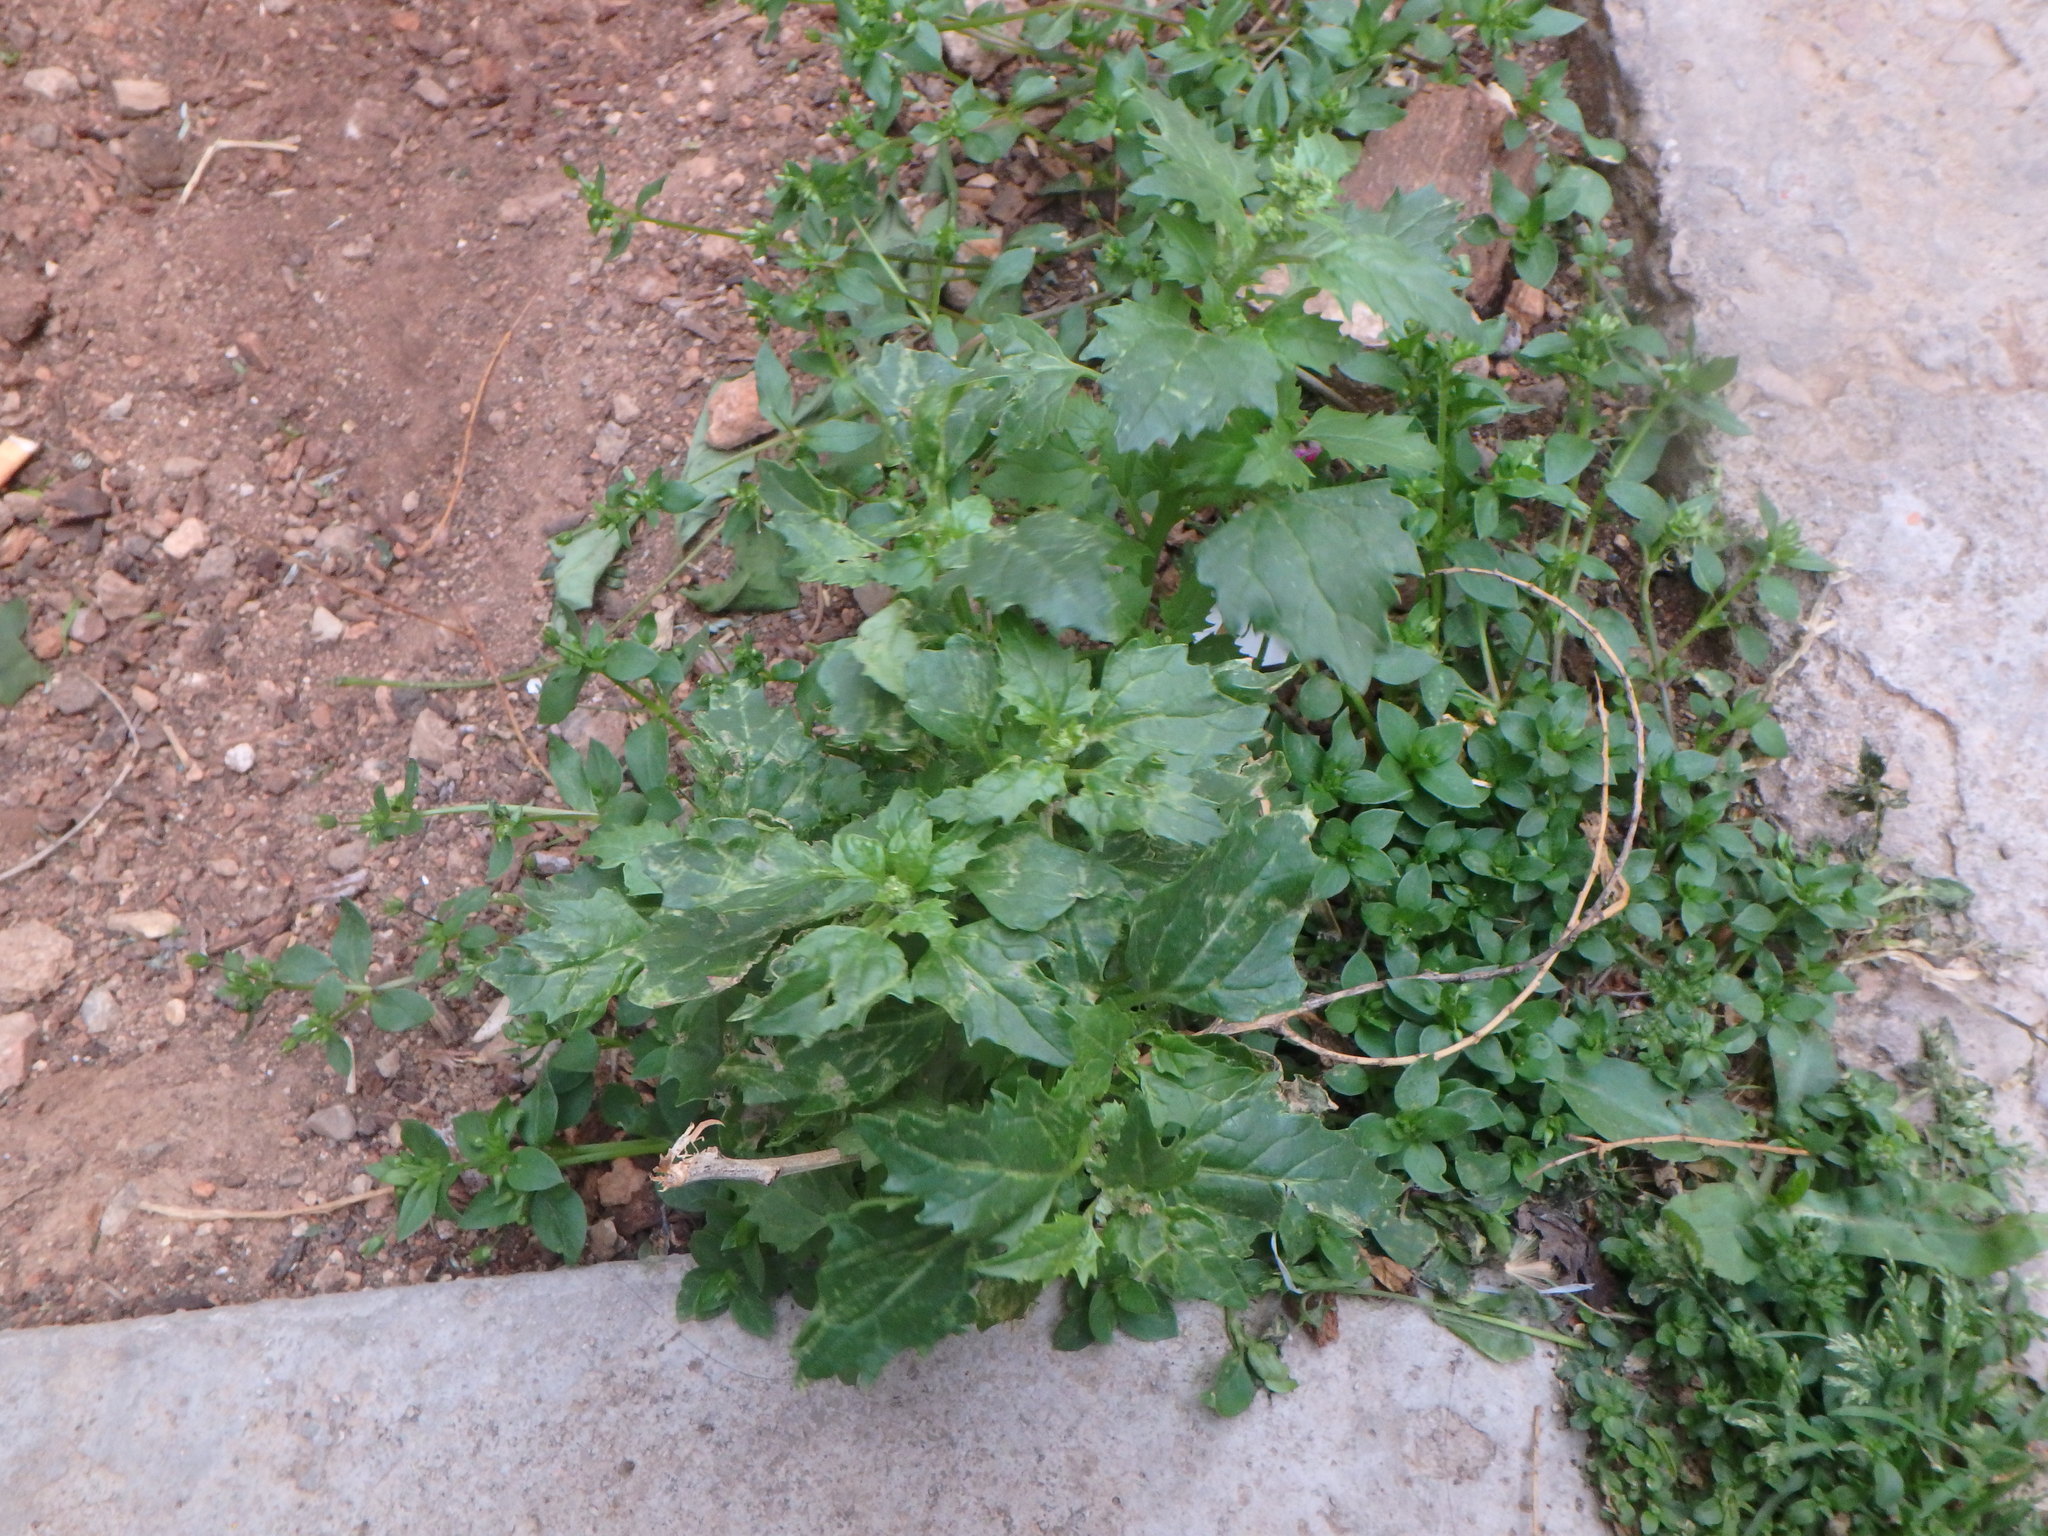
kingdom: Plantae
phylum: Tracheophyta
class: Magnoliopsida
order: Caryophyllales
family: Amaranthaceae
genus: Chenopodiastrum
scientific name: Chenopodiastrum murale
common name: Sowbane
